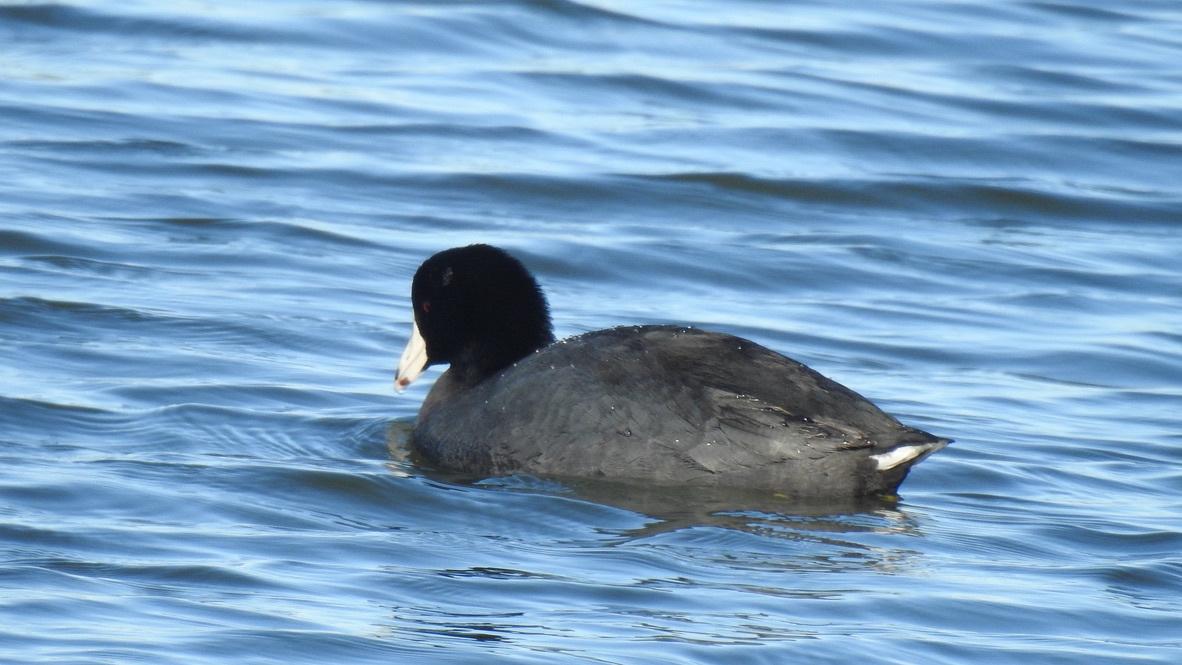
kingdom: Animalia
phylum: Chordata
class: Aves
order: Gruiformes
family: Rallidae
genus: Fulica
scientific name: Fulica americana
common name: American coot
